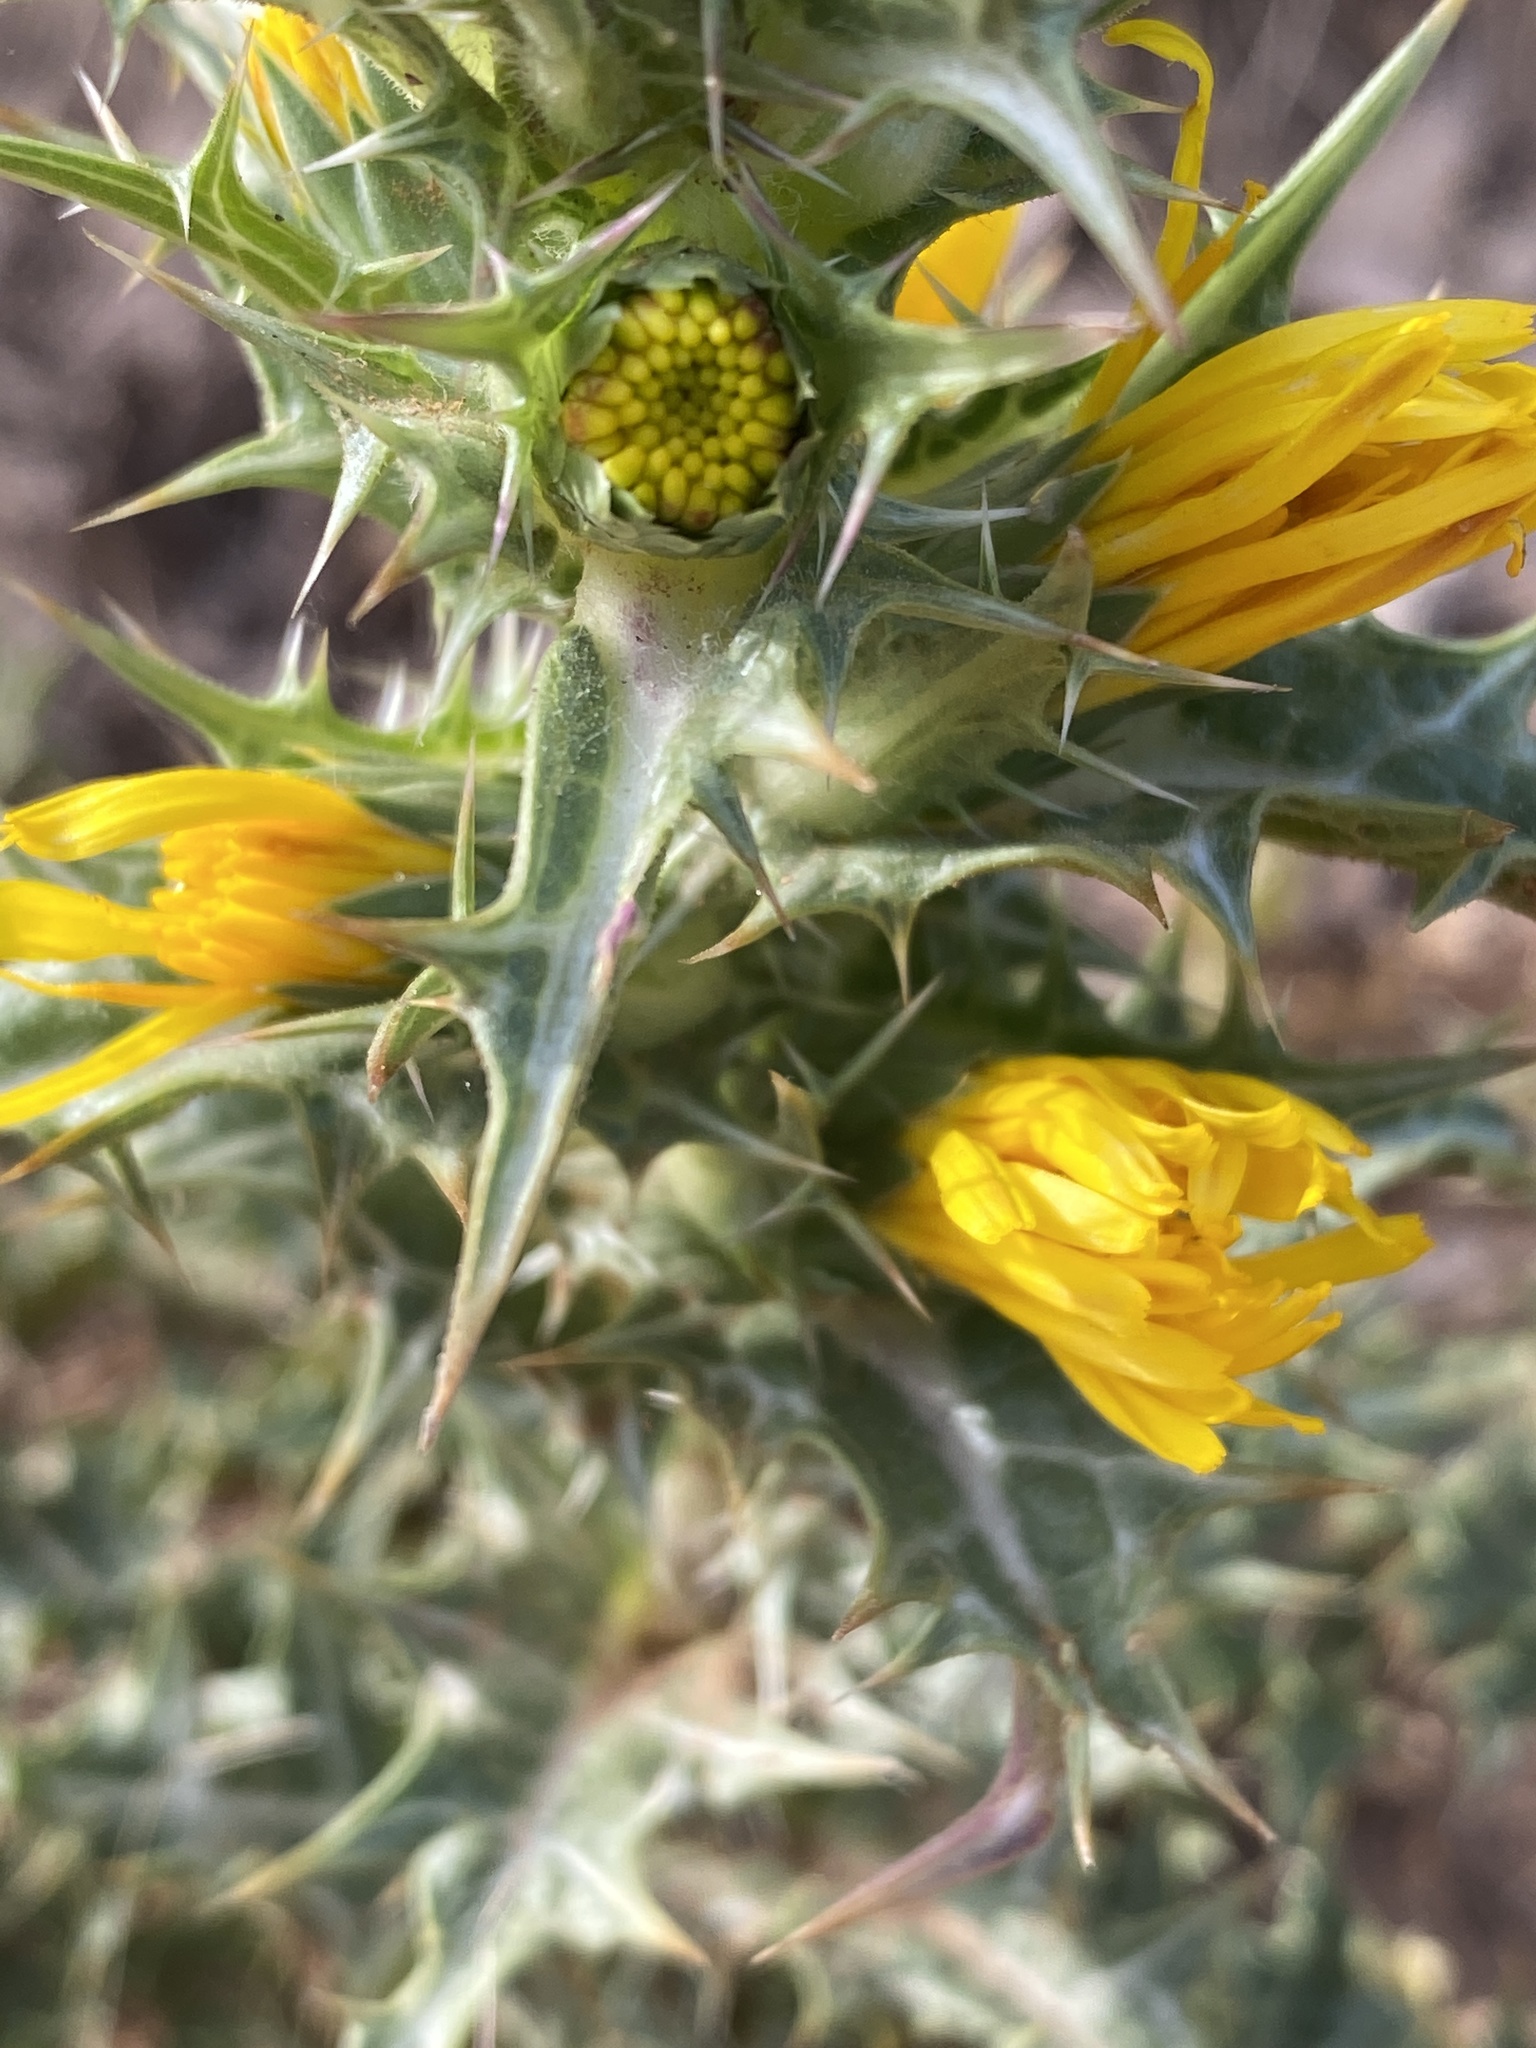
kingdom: Plantae
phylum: Tracheophyta
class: Magnoliopsida
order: Asterales
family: Asteraceae
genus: Scolymus
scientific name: Scolymus hispanicus
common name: Golden thistle
